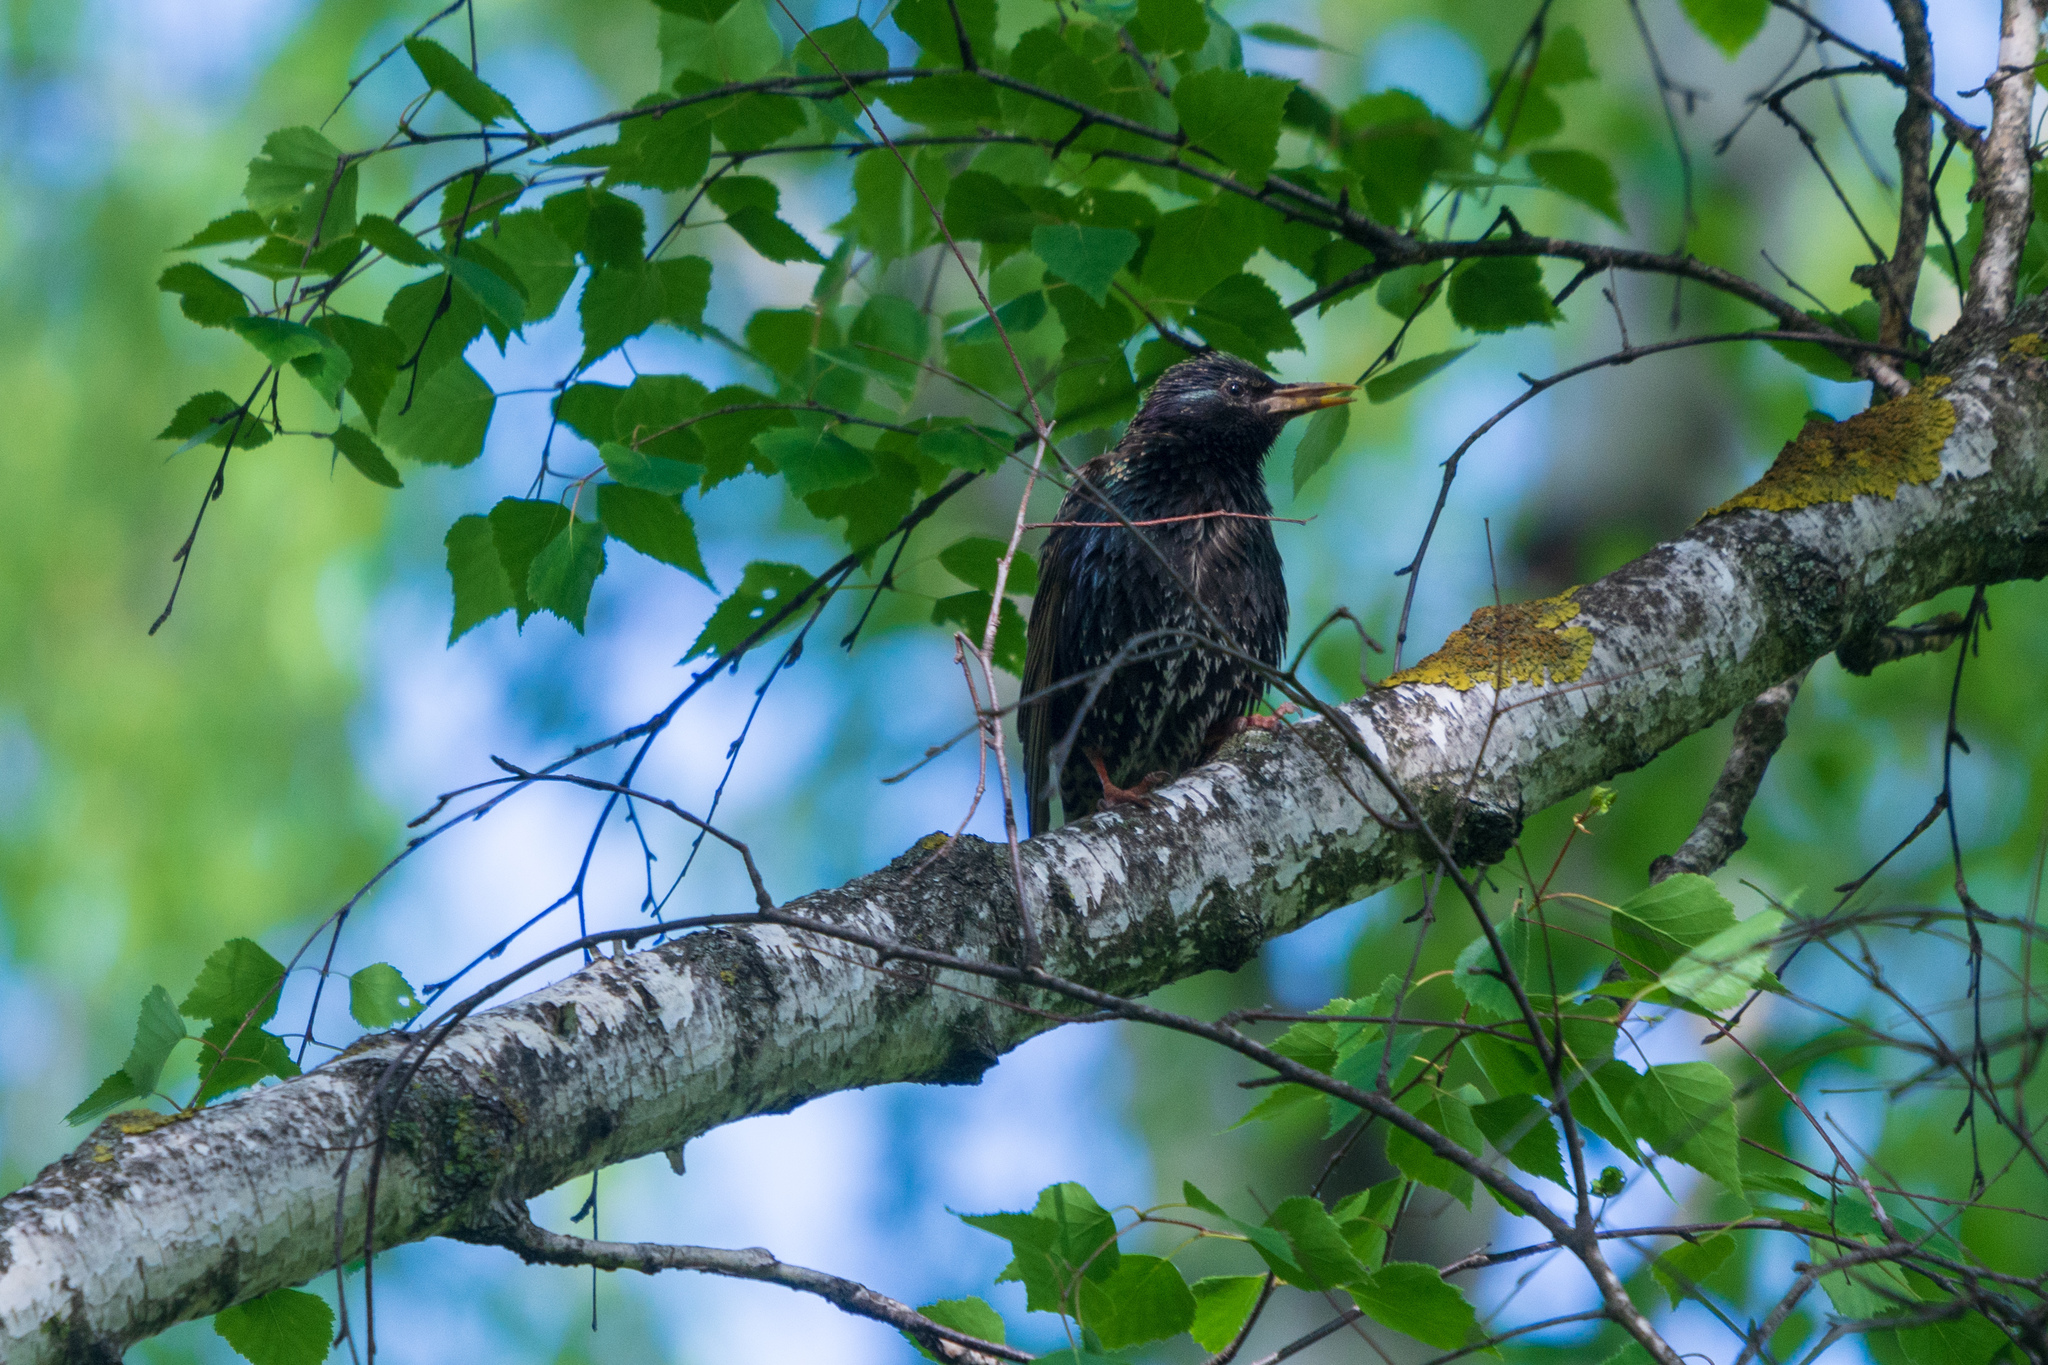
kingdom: Animalia
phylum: Chordata
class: Aves
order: Passeriformes
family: Sturnidae
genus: Sturnus
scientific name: Sturnus vulgaris
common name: Common starling
